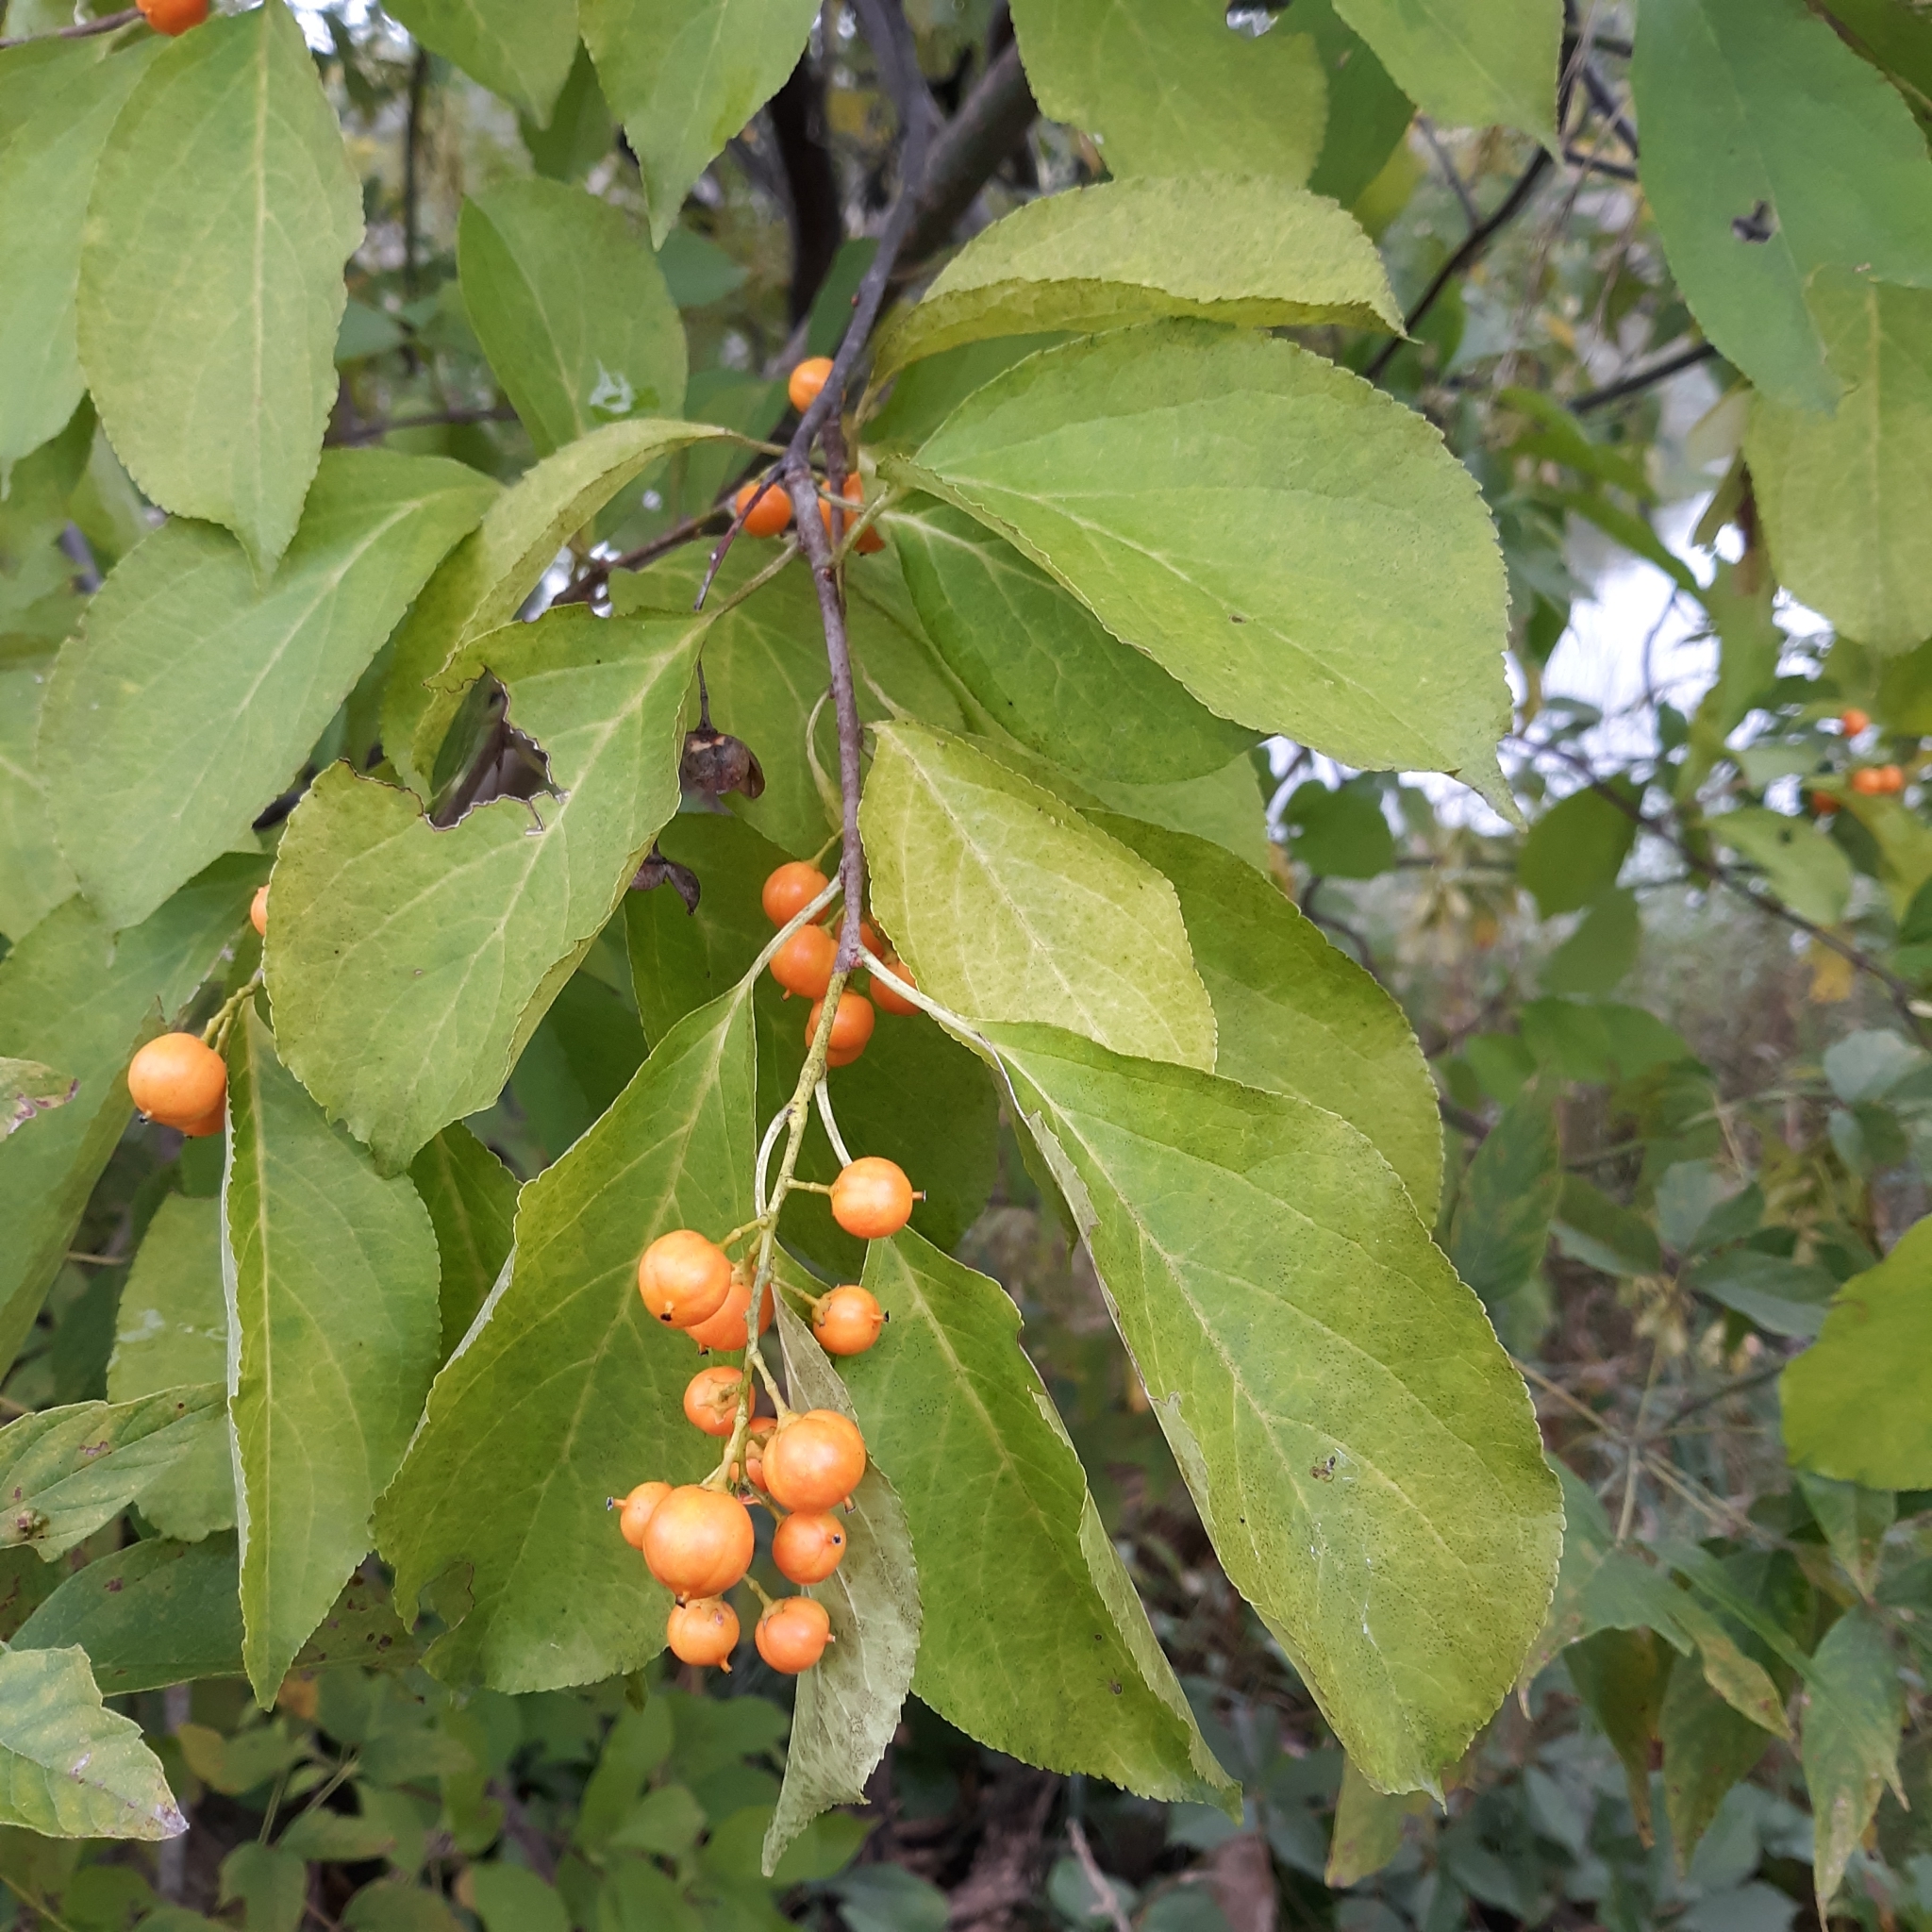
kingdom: Plantae
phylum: Tracheophyta
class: Magnoliopsida
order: Celastrales
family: Celastraceae
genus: Celastrus
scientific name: Celastrus scandens
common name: American bittersweet
